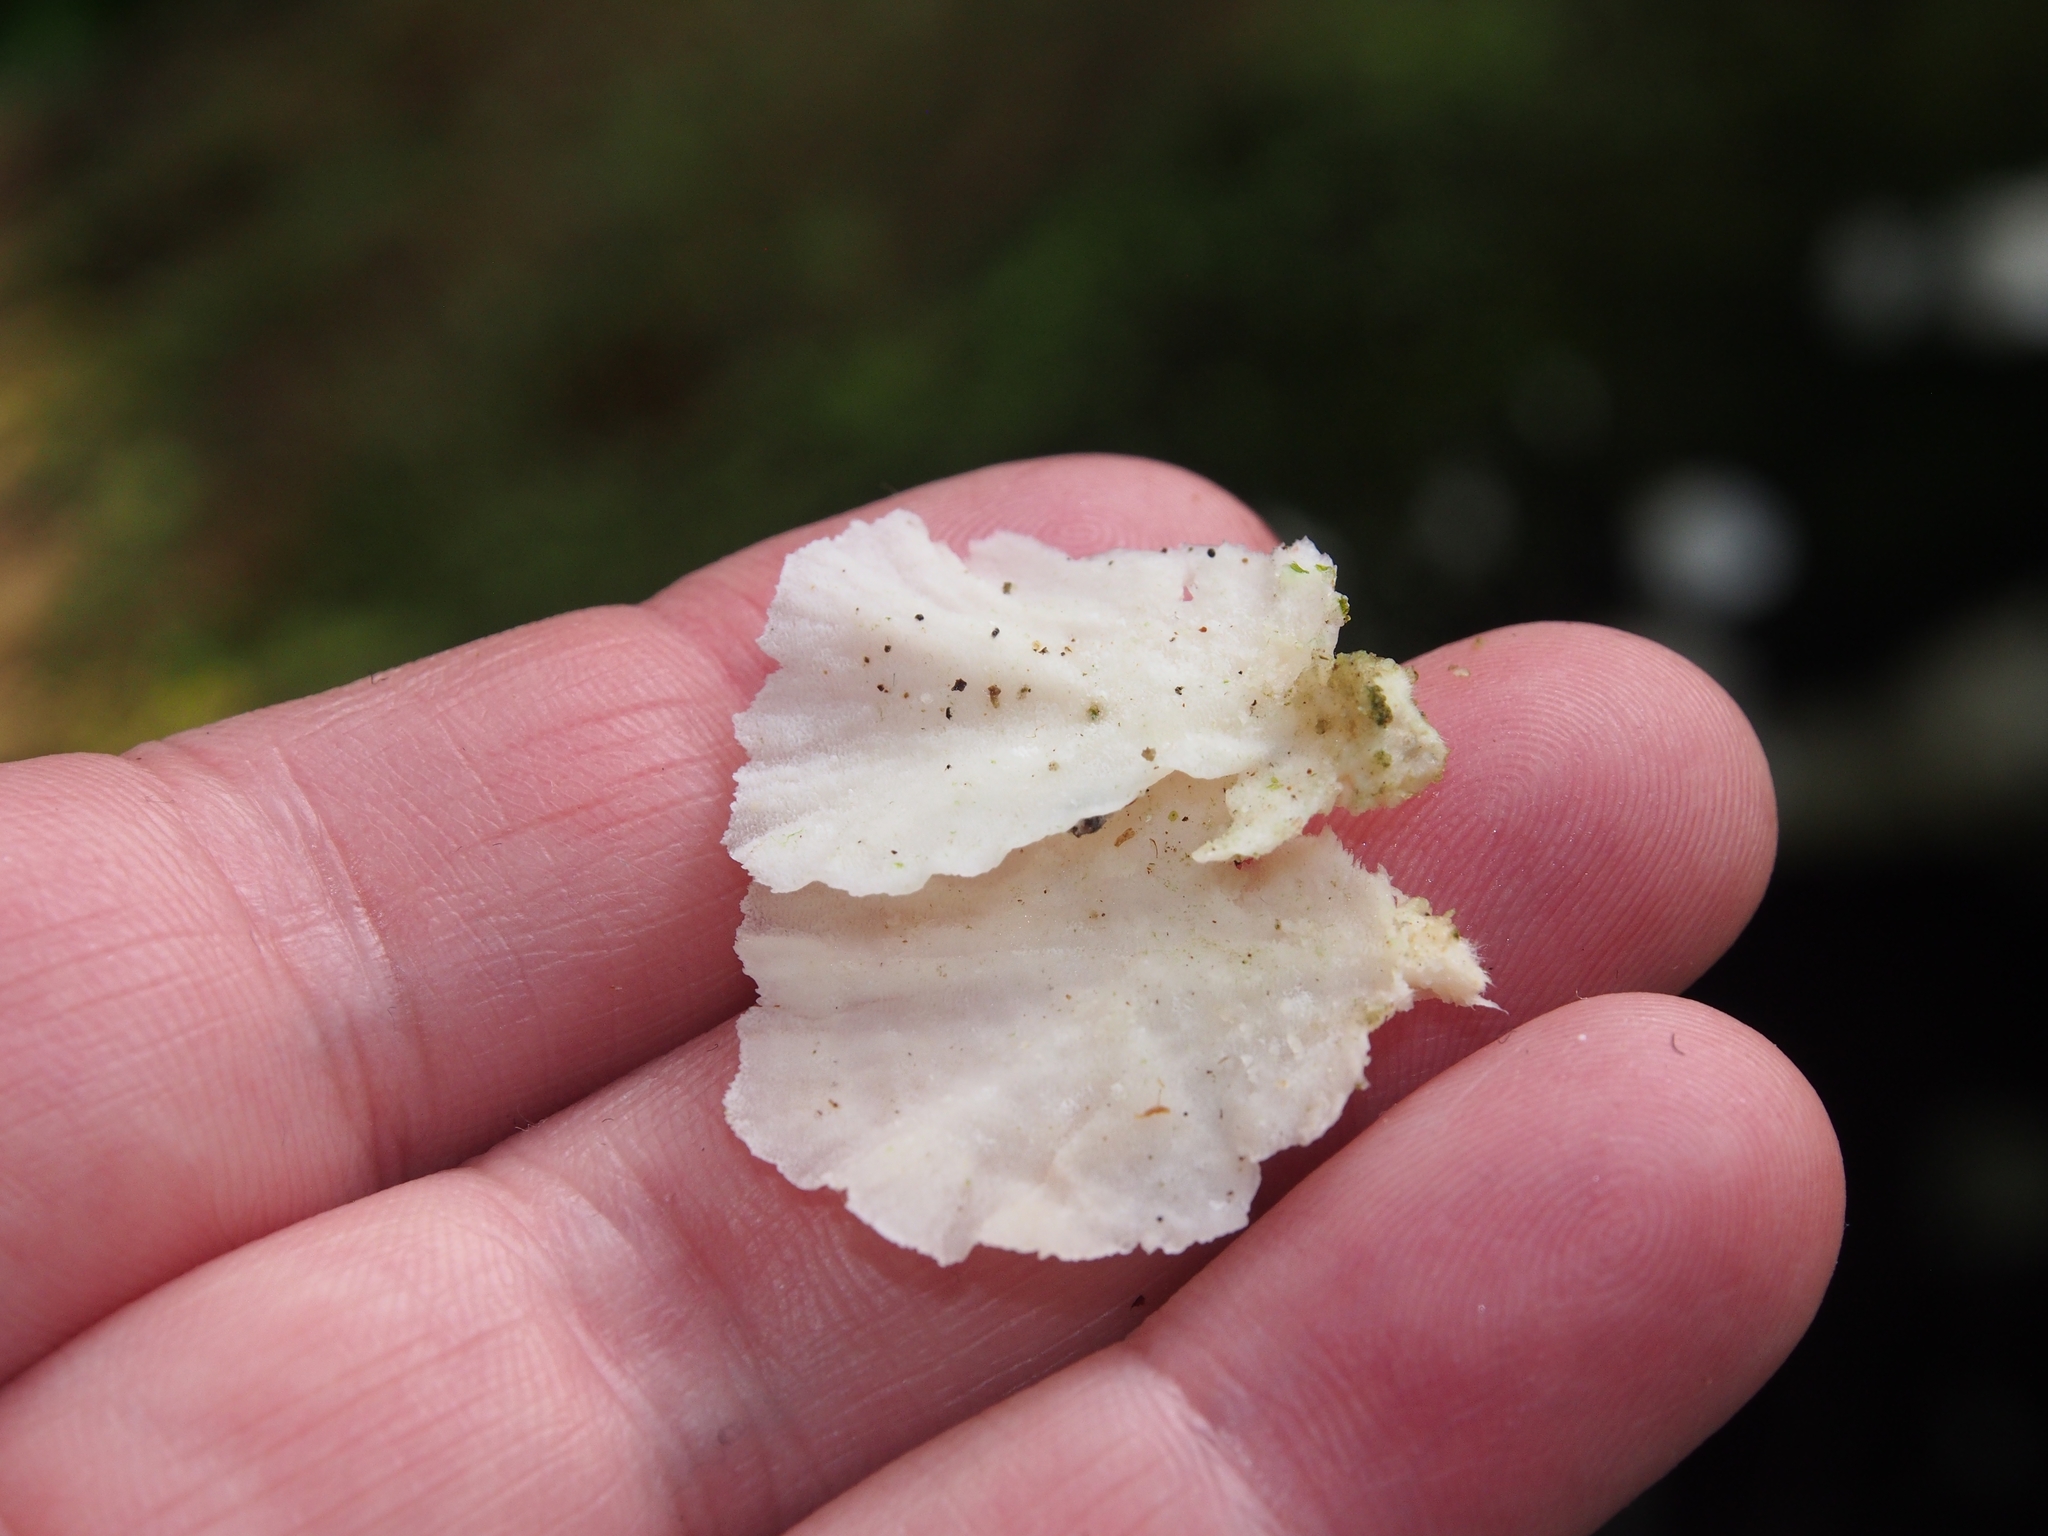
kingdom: Fungi
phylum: Basidiomycota
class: Agaricomycetes
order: Hymenochaetales
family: Rickenellaceae
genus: Cotylidia
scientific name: Cotylidia diaphana
